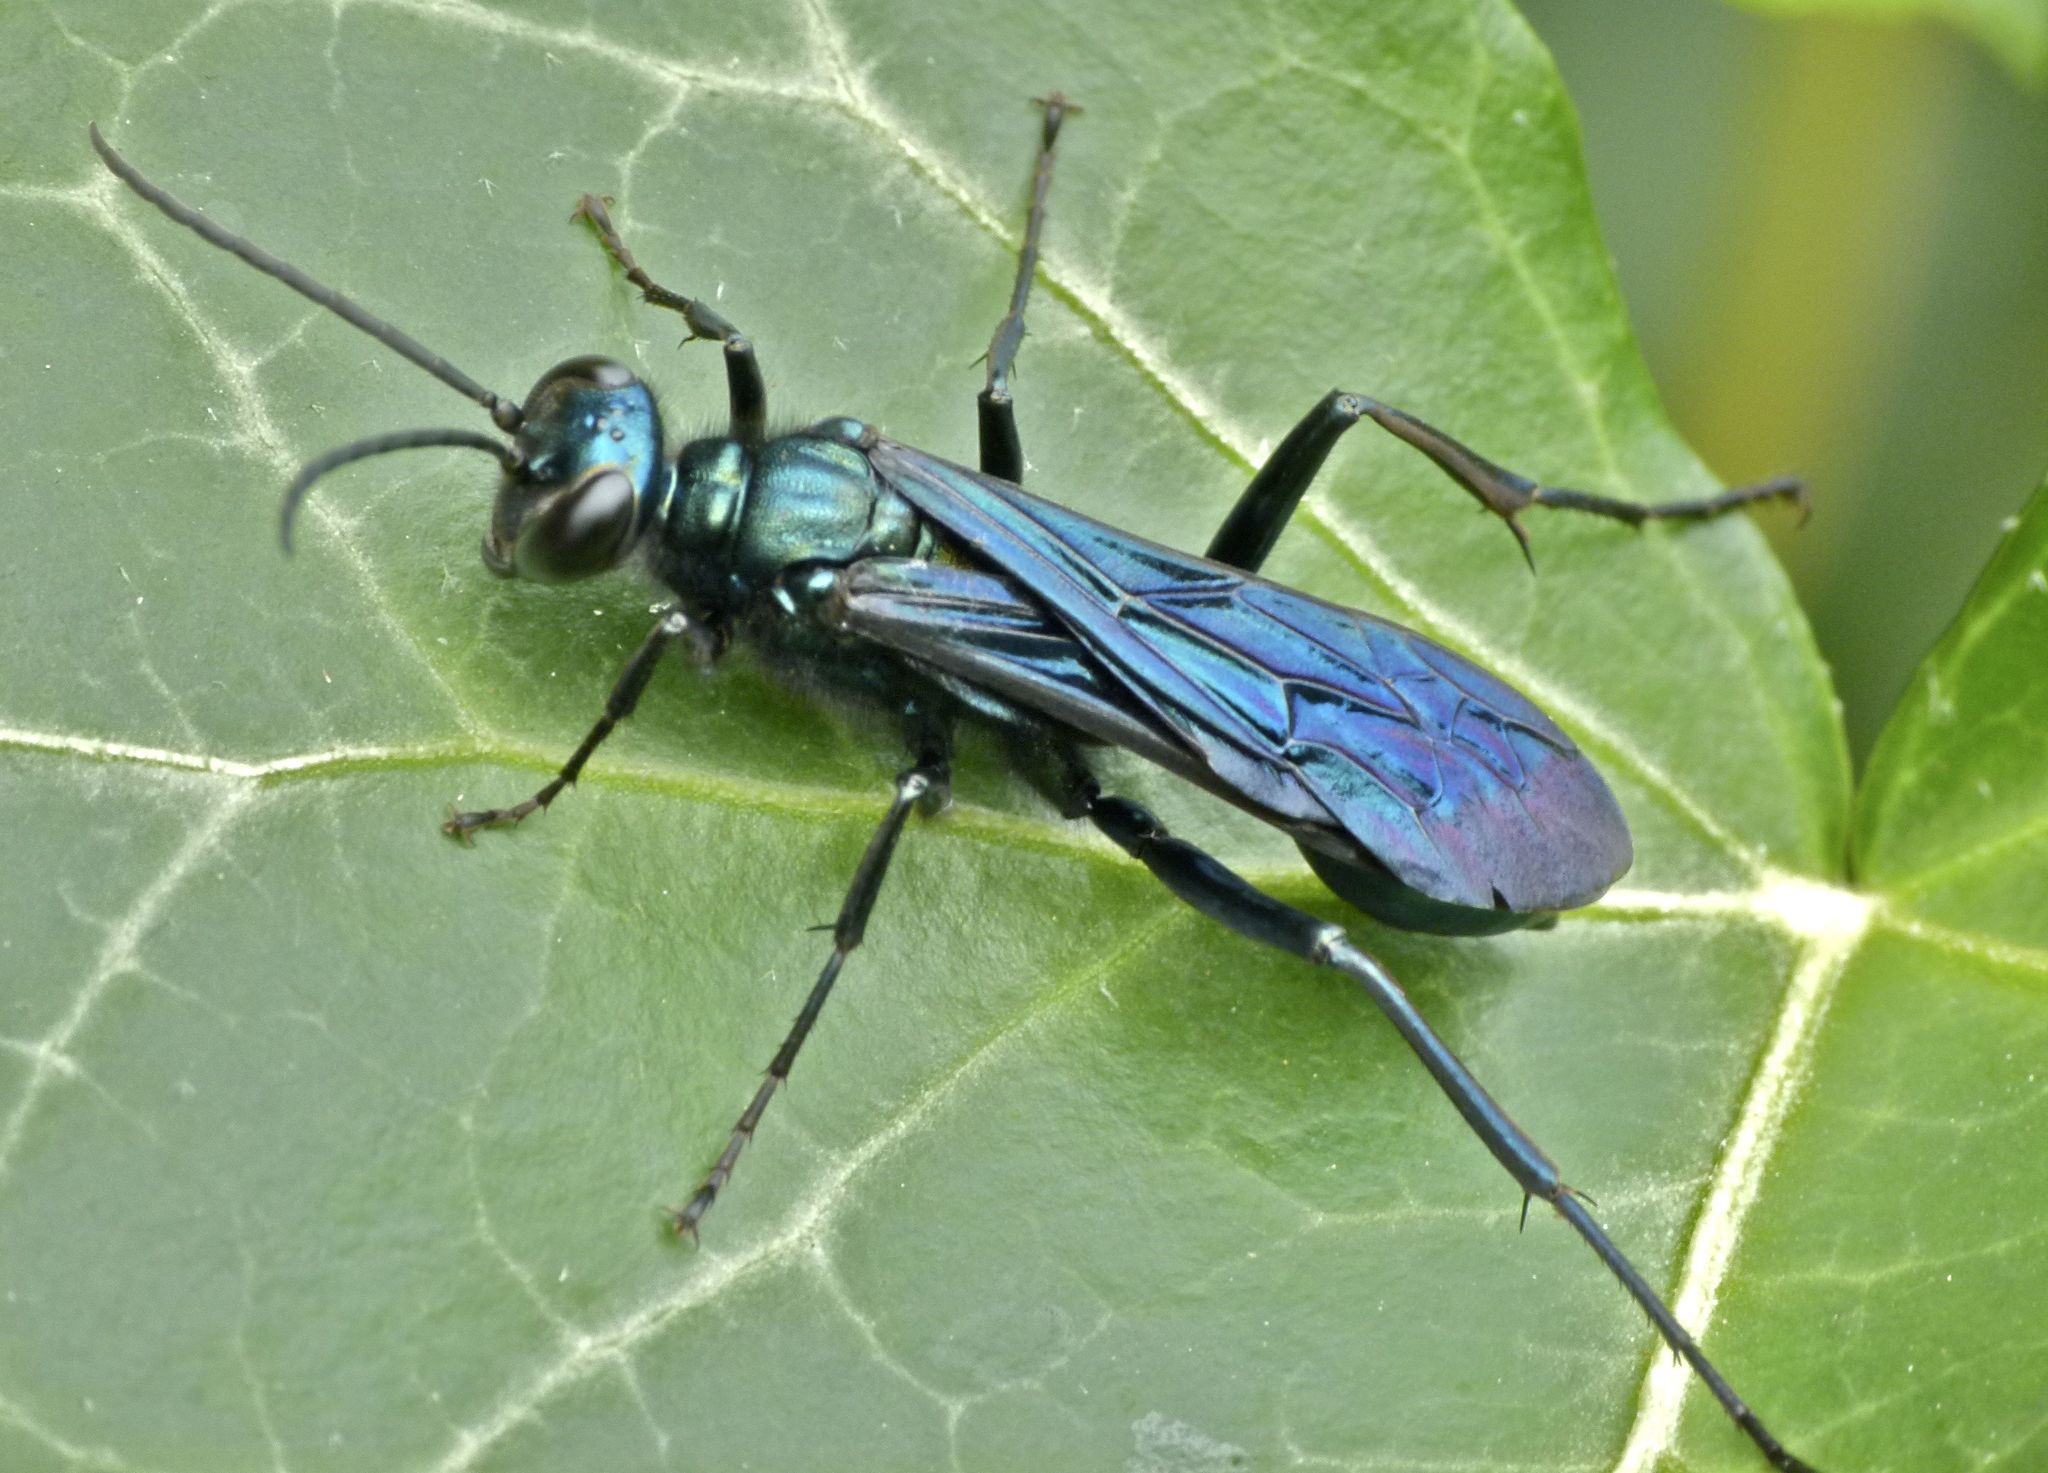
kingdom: Animalia
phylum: Arthropoda
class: Insecta
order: Hymenoptera
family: Sphecidae
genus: Chalybion
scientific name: Chalybion californicum
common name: Mud dauber
